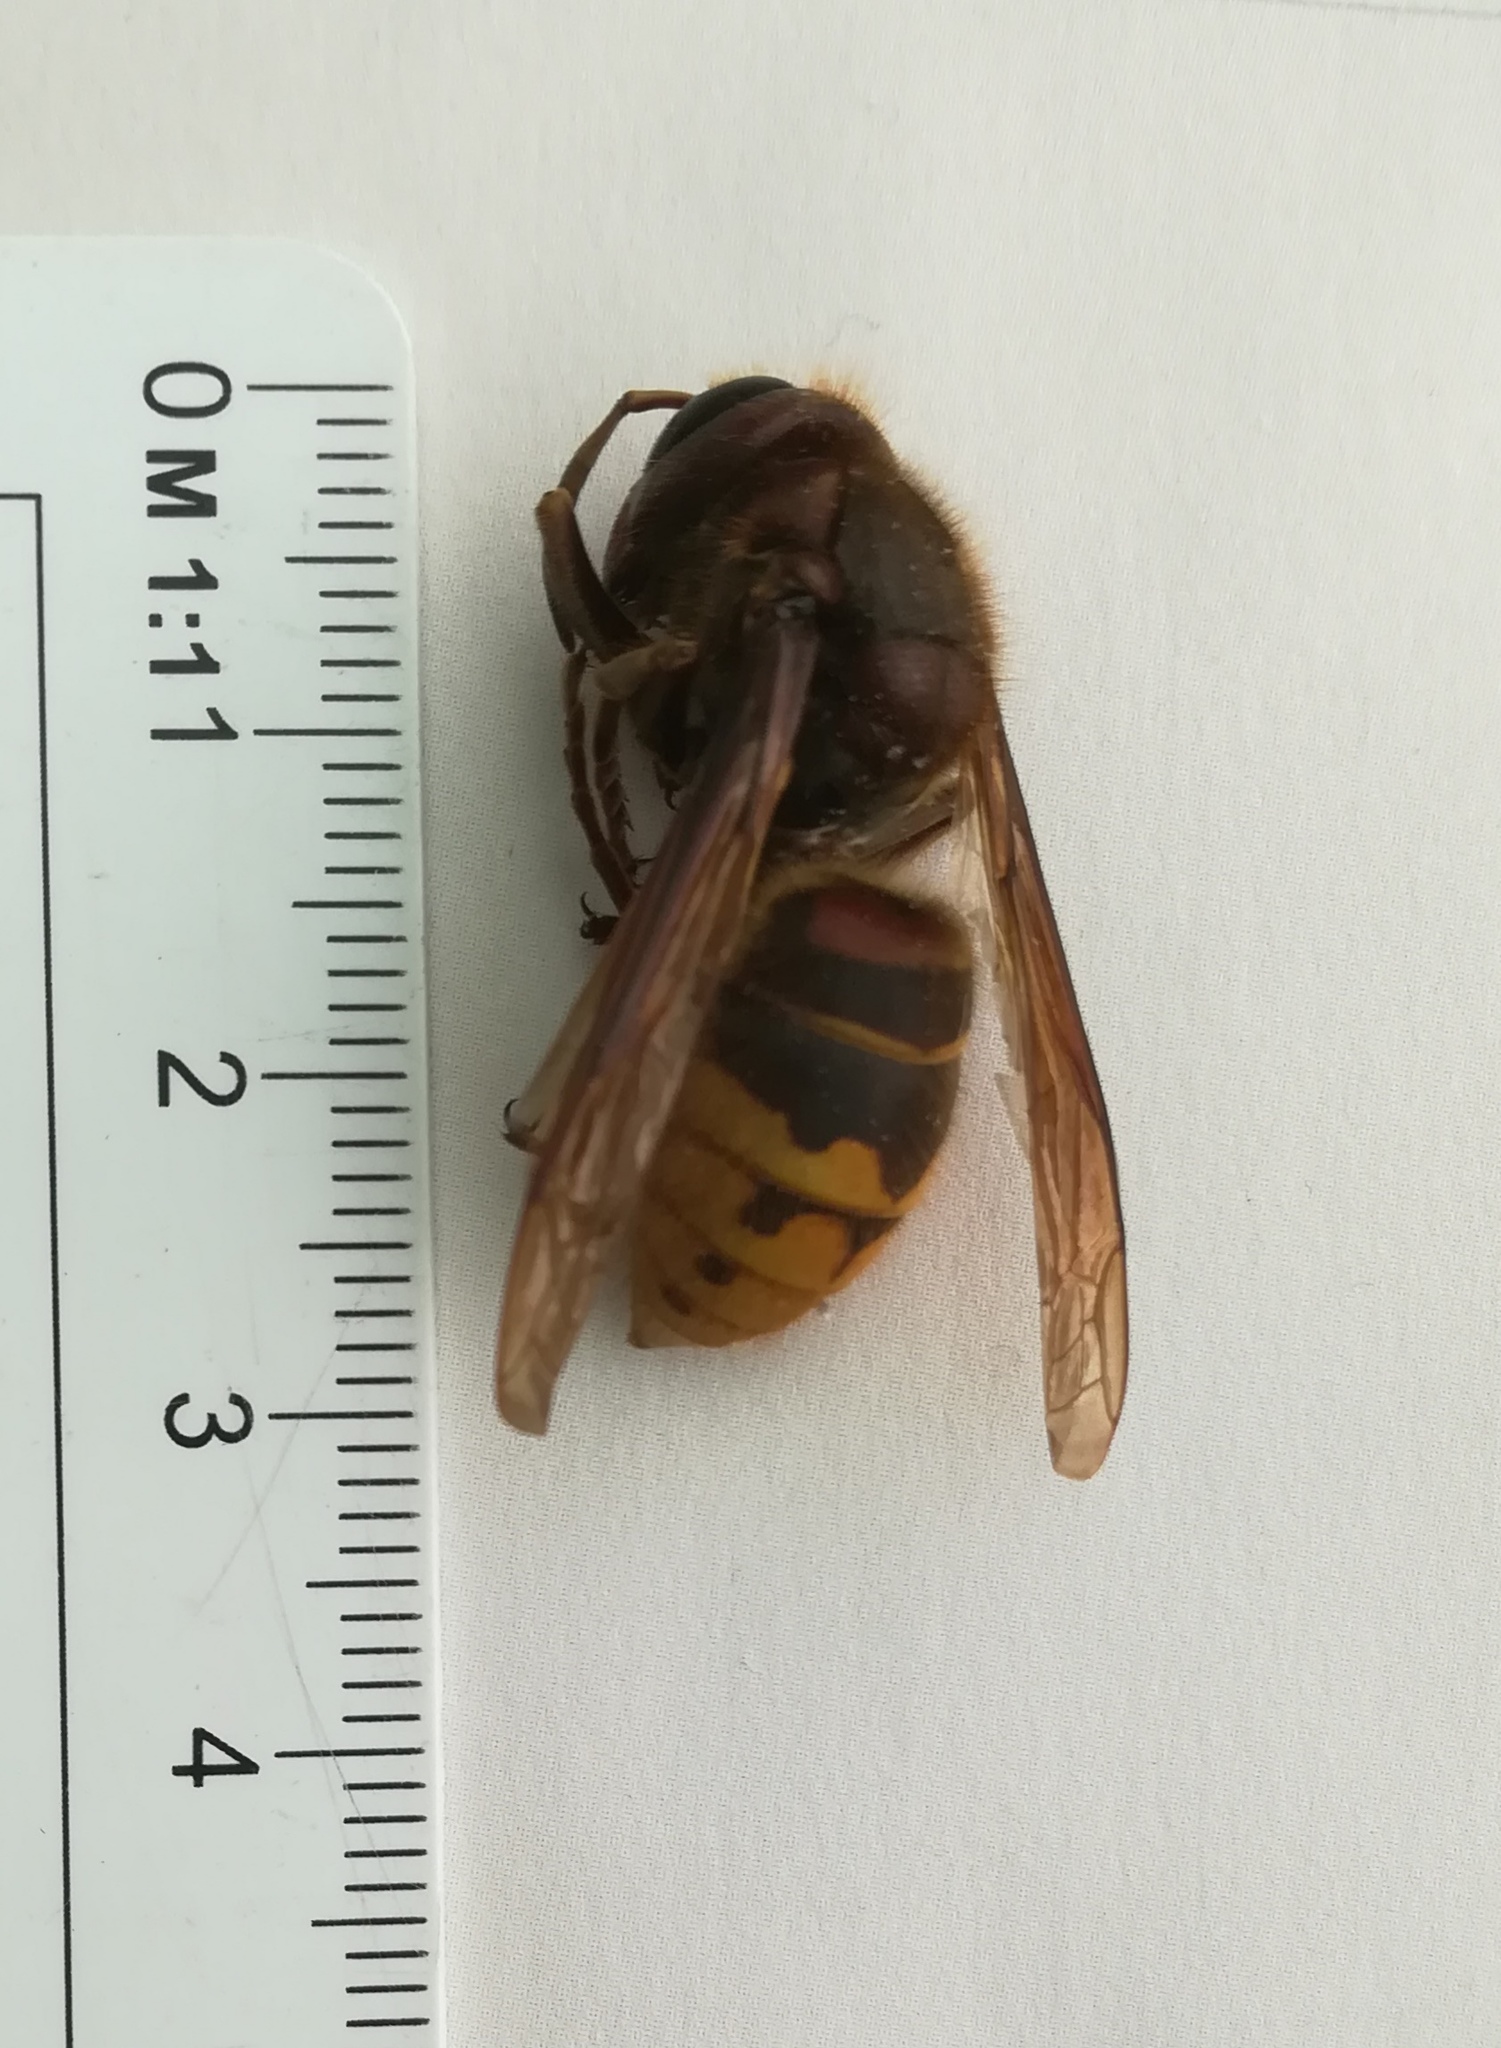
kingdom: Animalia
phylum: Arthropoda
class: Insecta
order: Hymenoptera
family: Vespidae
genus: Vespa
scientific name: Vespa crabro
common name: Hornet
